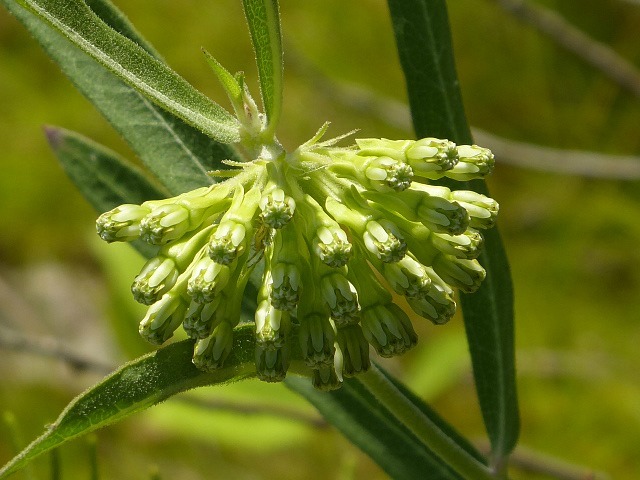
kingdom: Plantae
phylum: Tracheophyta
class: Magnoliopsida
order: Gentianales
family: Apocynaceae
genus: Asclepias
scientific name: Asclepias viridiflora
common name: Green comet milkweed
